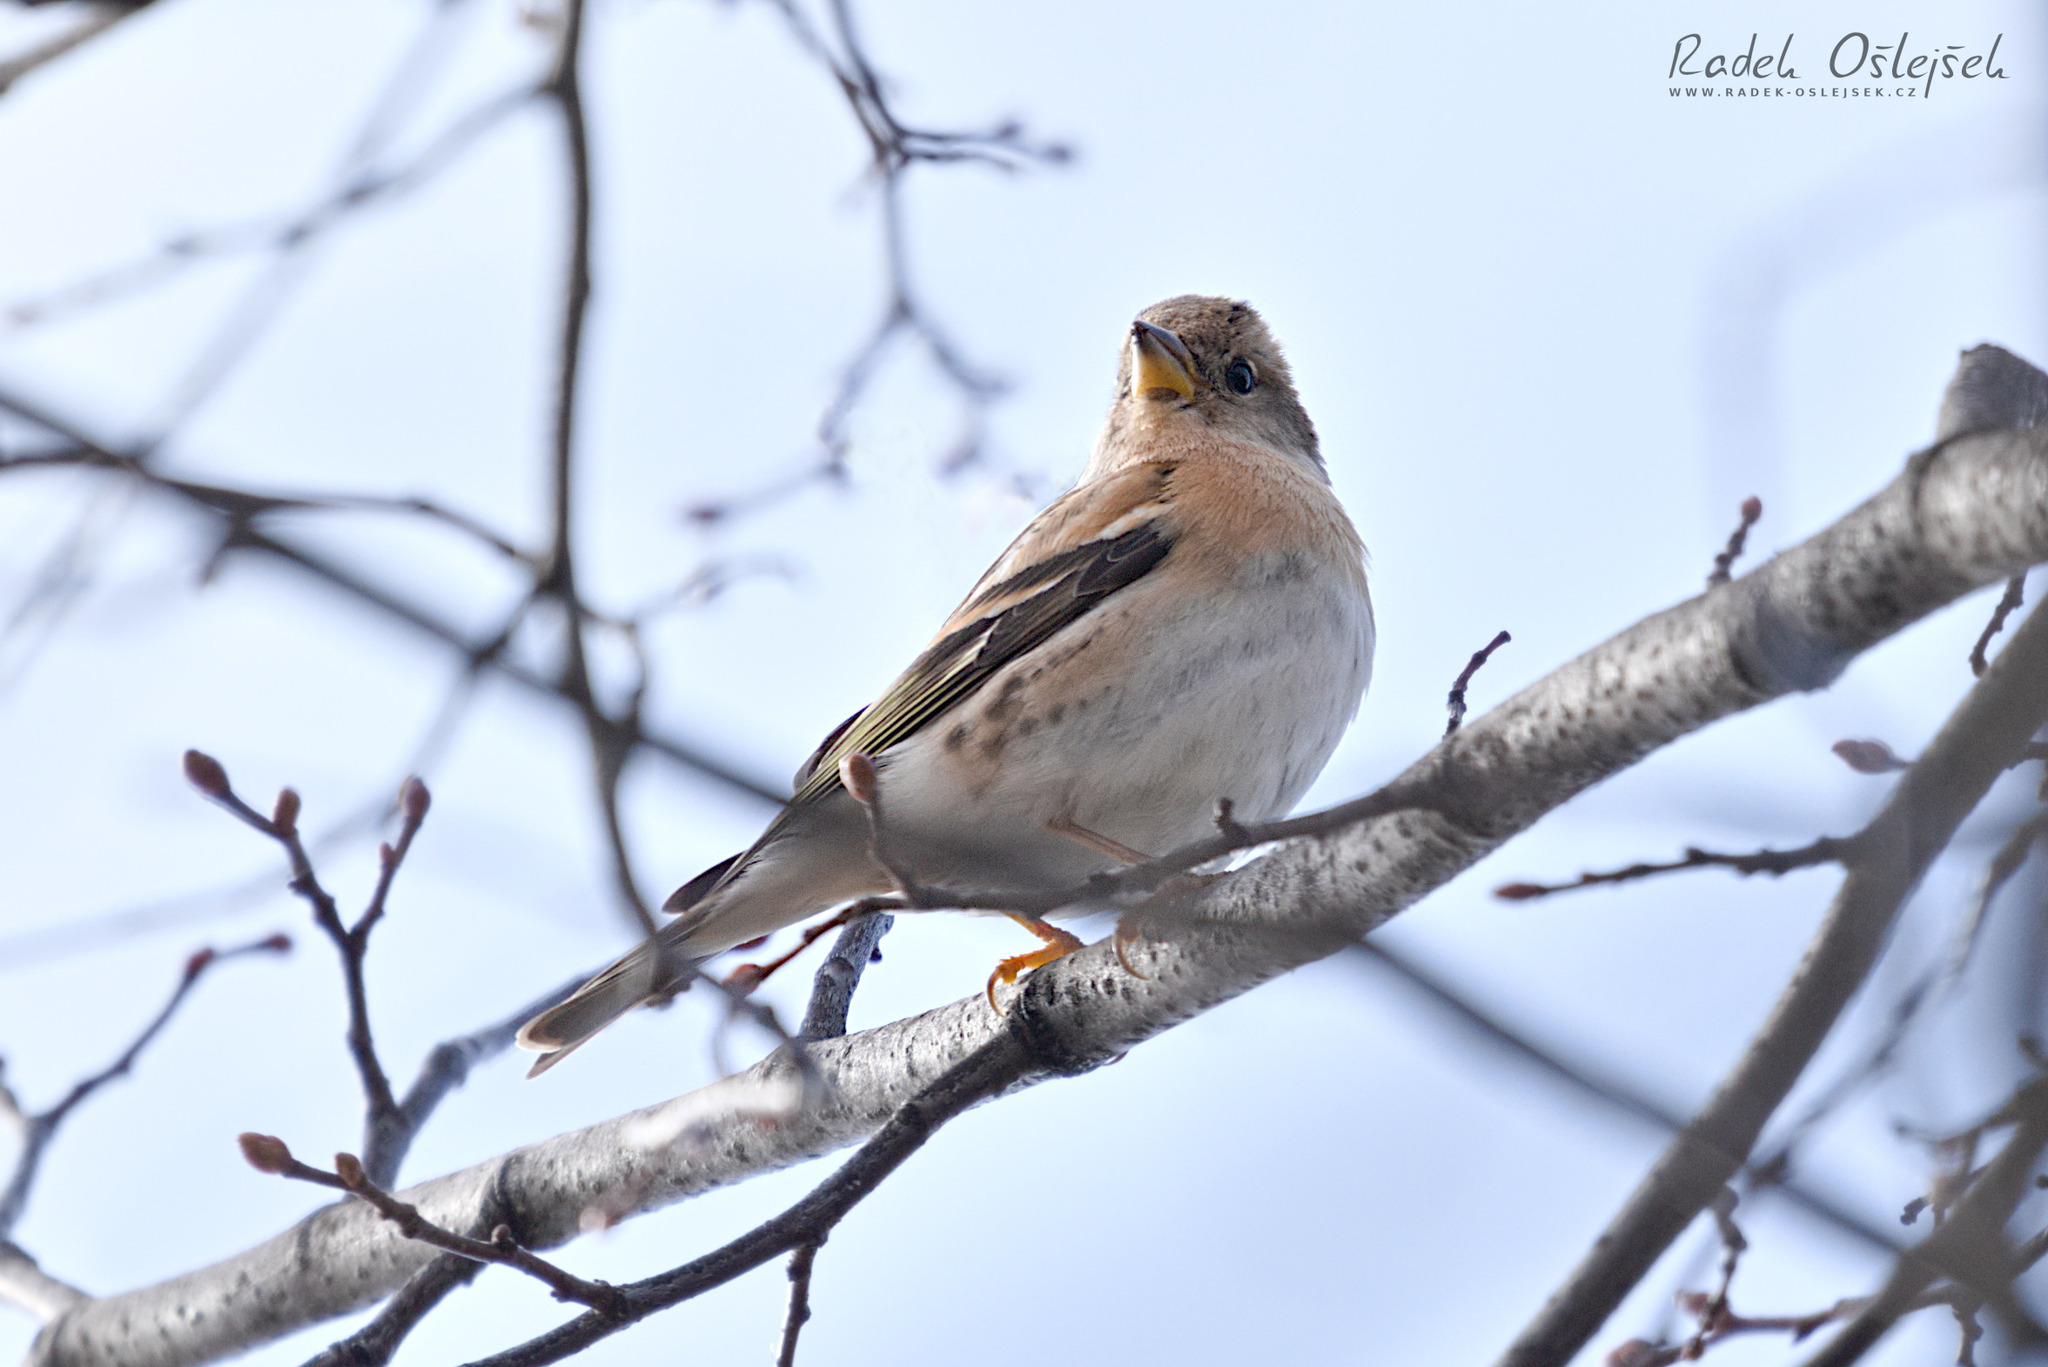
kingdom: Animalia
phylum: Chordata
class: Aves
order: Passeriformes
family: Fringillidae
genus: Fringilla
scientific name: Fringilla montifringilla
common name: Brambling
